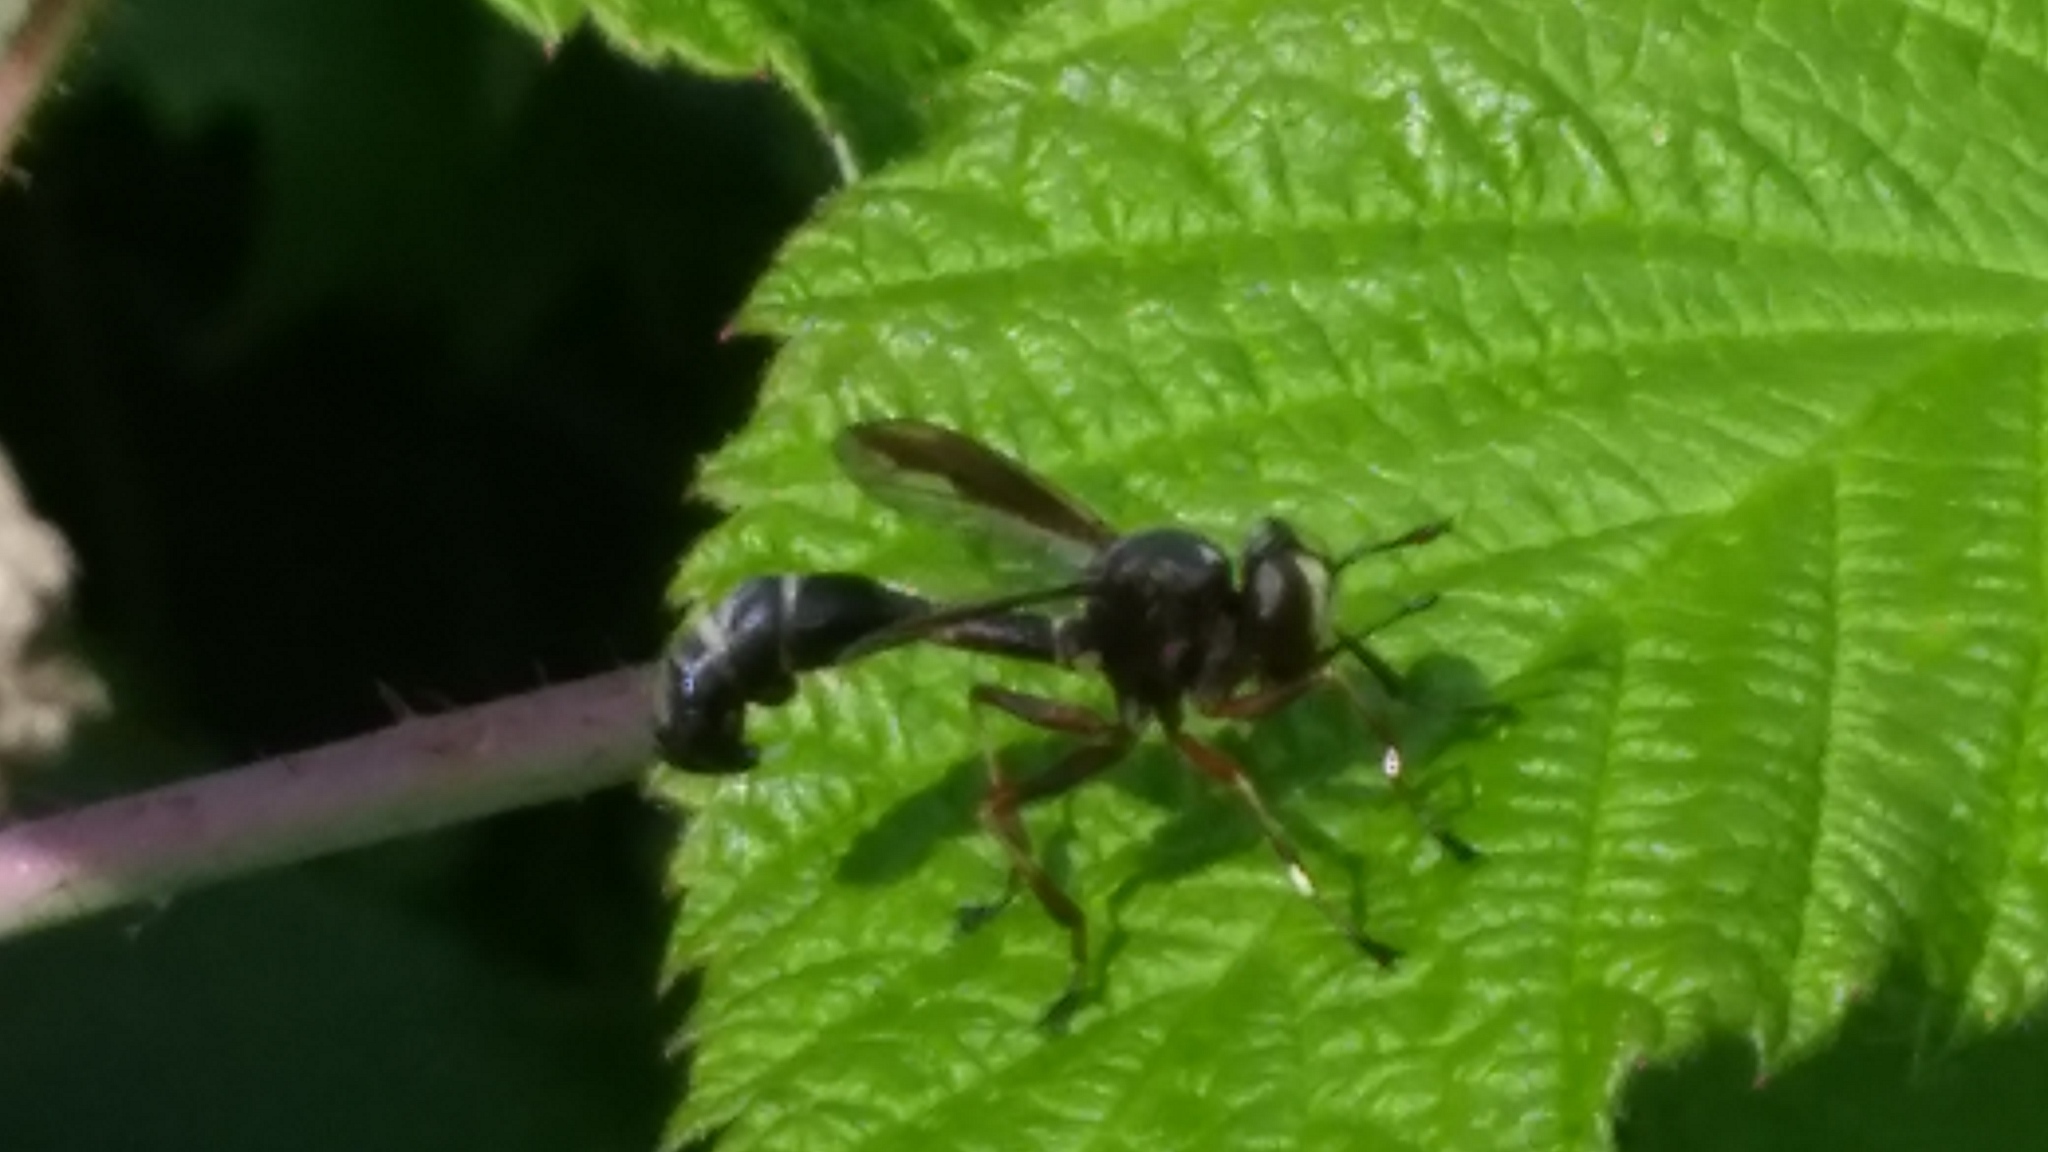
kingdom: Animalia
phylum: Arthropoda
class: Insecta
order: Diptera
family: Conopidae
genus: Physocephala
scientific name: Physocephala furcillata
